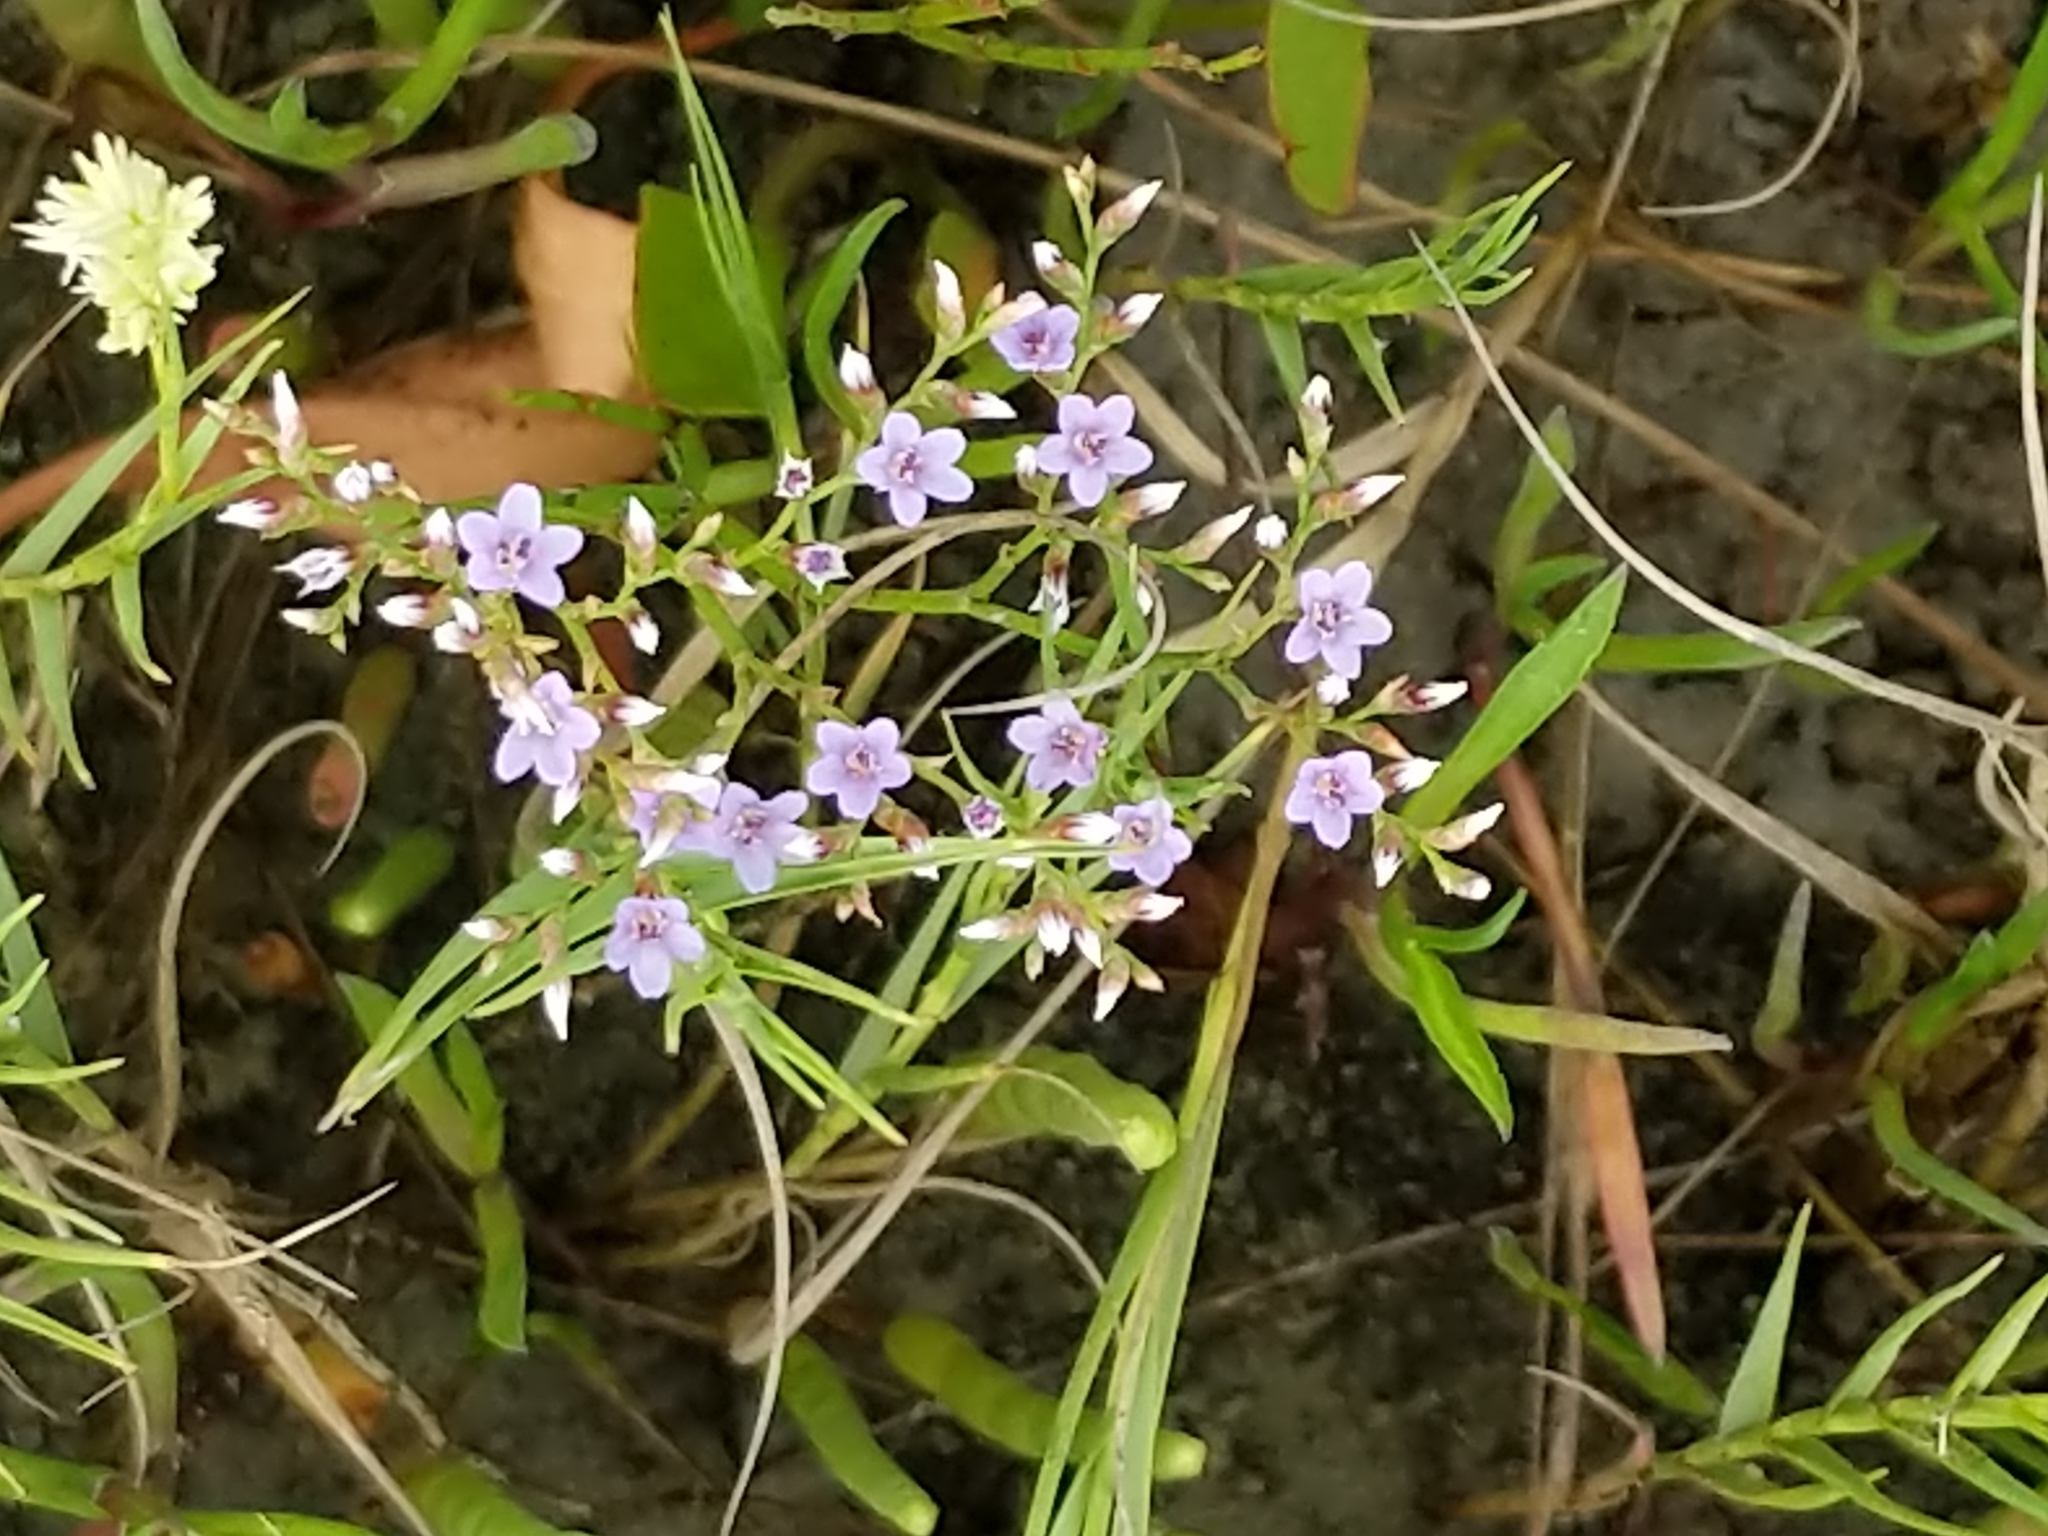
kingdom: Plantae
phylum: Tracheophyta
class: Magnoliopsida
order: Caryophyllales
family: Plumbaginaceae
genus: Limonium
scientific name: Limonium carolinianum
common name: Carolina sea lavender
